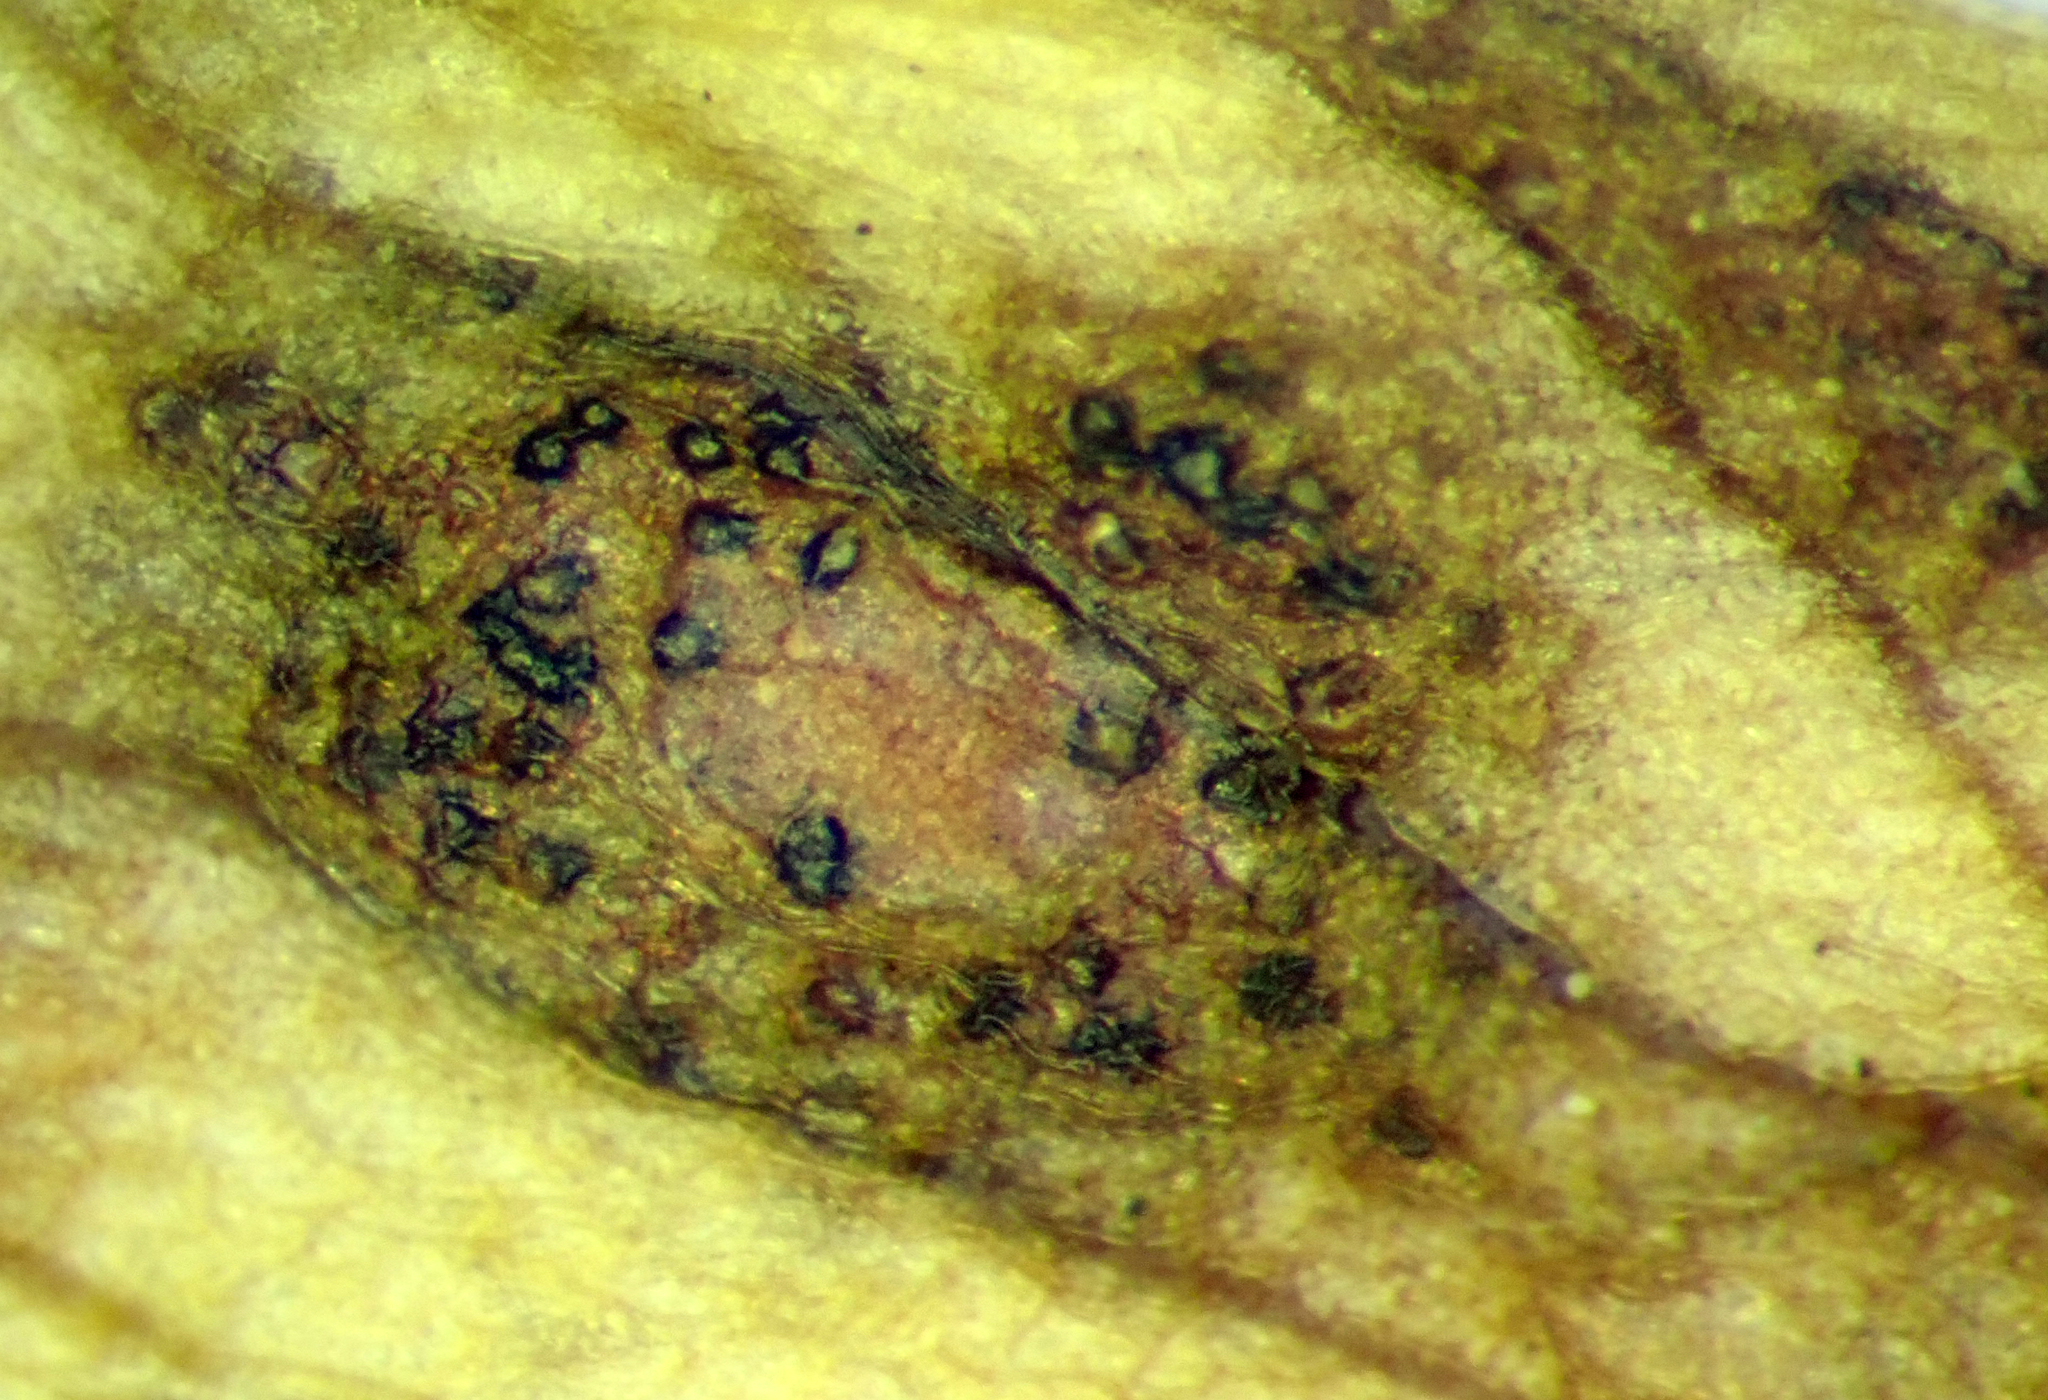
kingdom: Fungi
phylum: Ascomycota
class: Dothideomycetes
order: Mycosphaerellales
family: Mycosphaerellaceae
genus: Septoria
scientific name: Septoria apiicola
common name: Celery late blight
